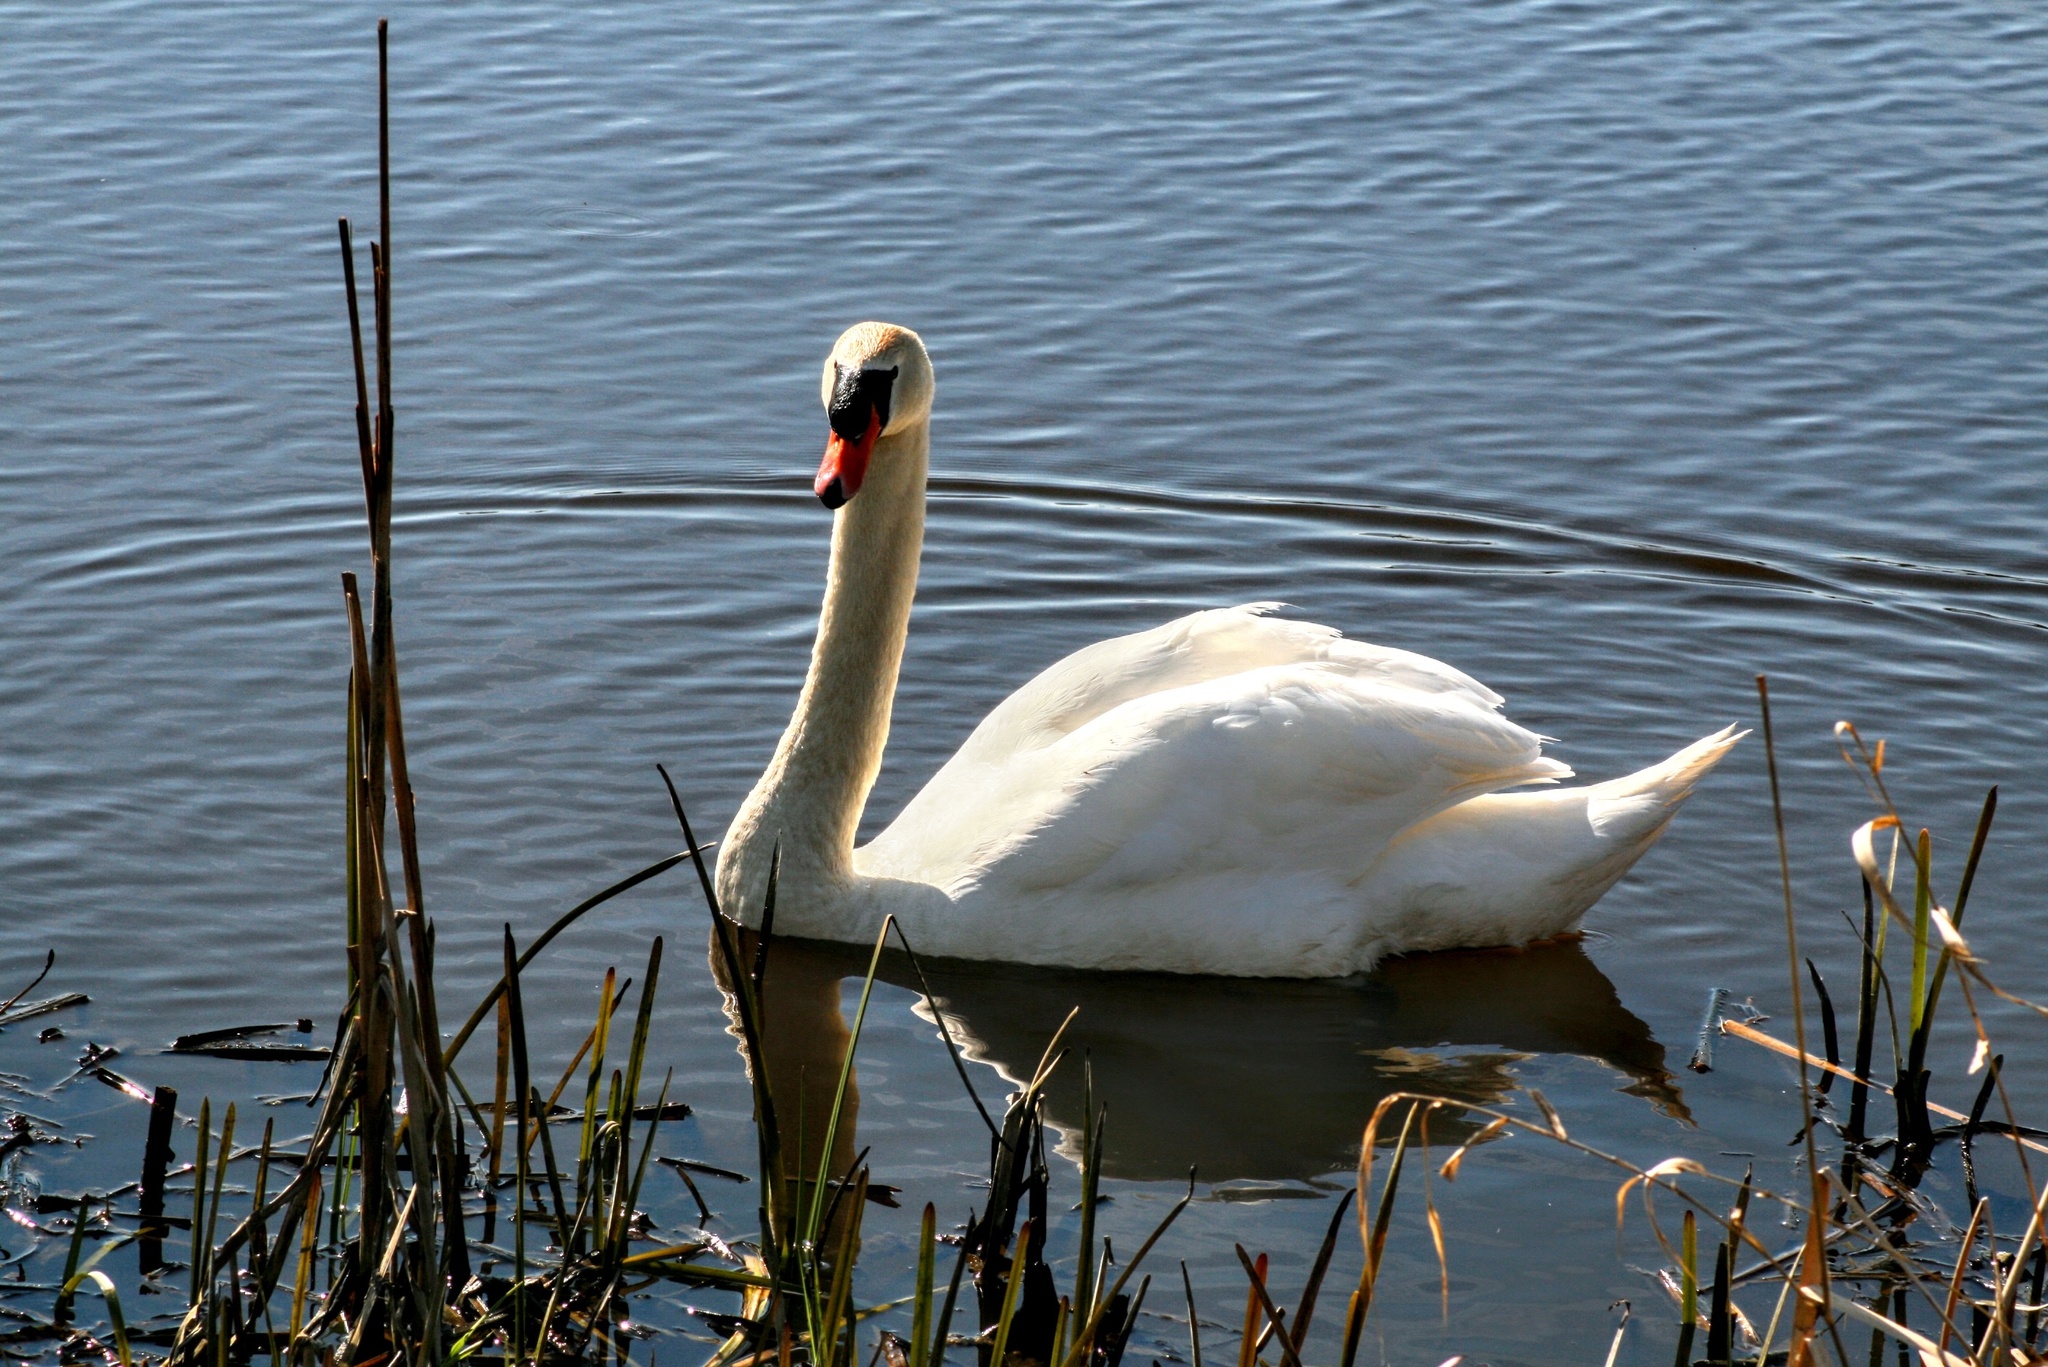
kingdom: Animalia
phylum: Chordata
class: Aves
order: Anseriformes
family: Anatidae
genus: Cygnus
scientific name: Cygnus olor
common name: Mute swan
